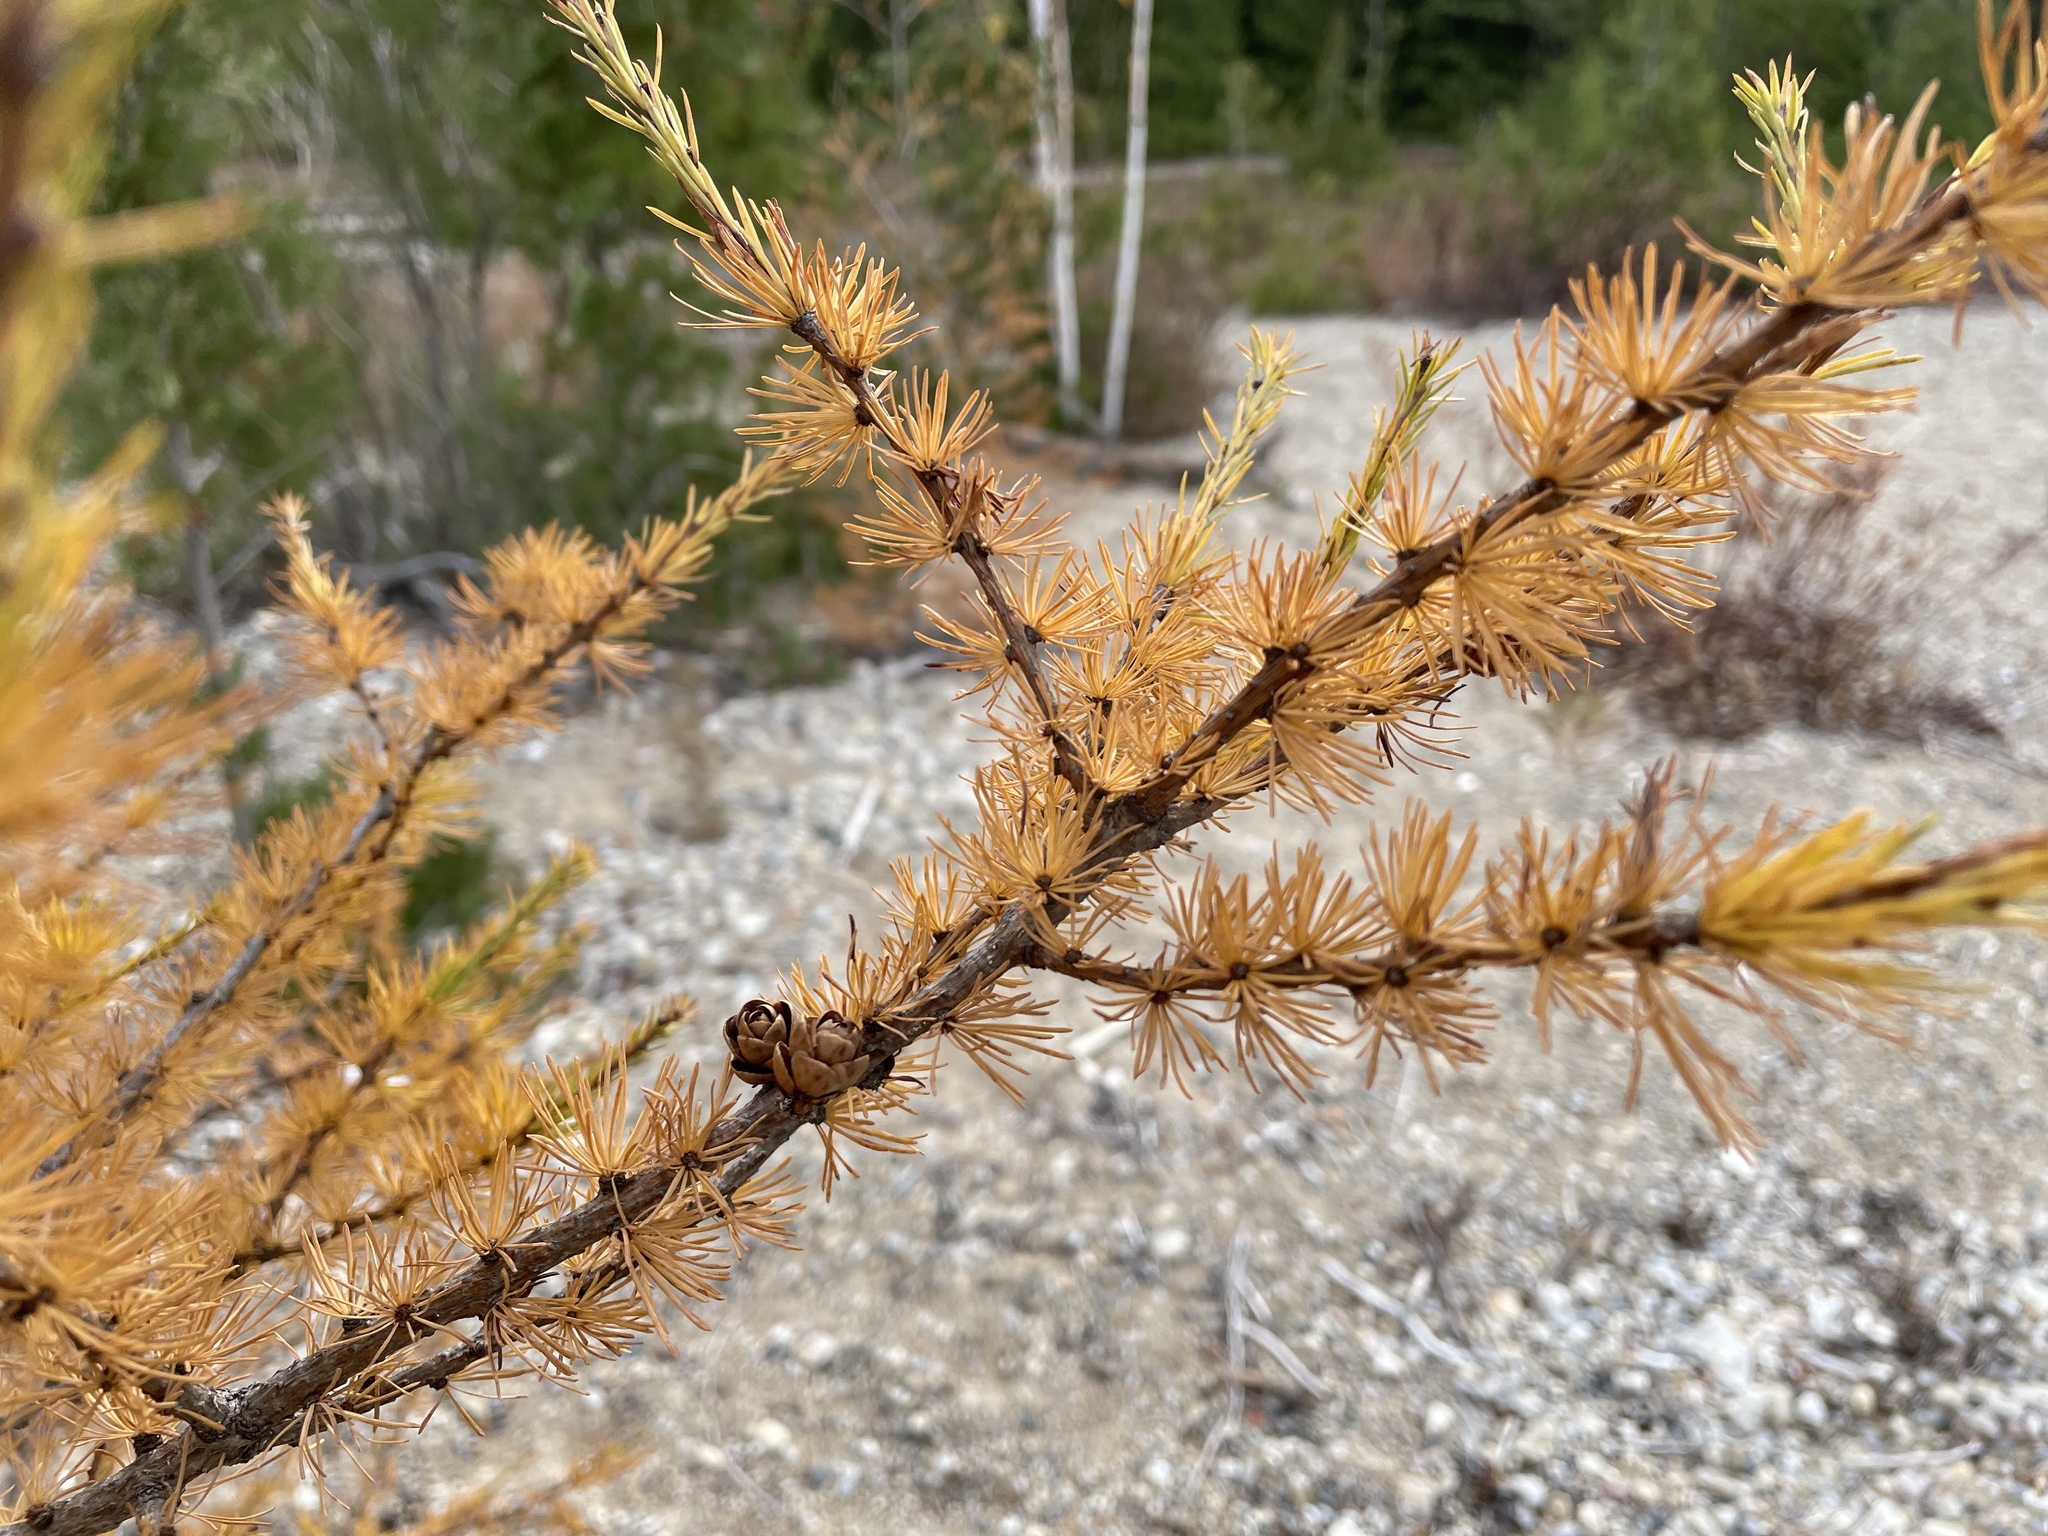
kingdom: Plantae
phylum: Tracheophyta
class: Pinopsida
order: Pinales
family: Pinaceae
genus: Larix
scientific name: Larix laricina
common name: American larch
